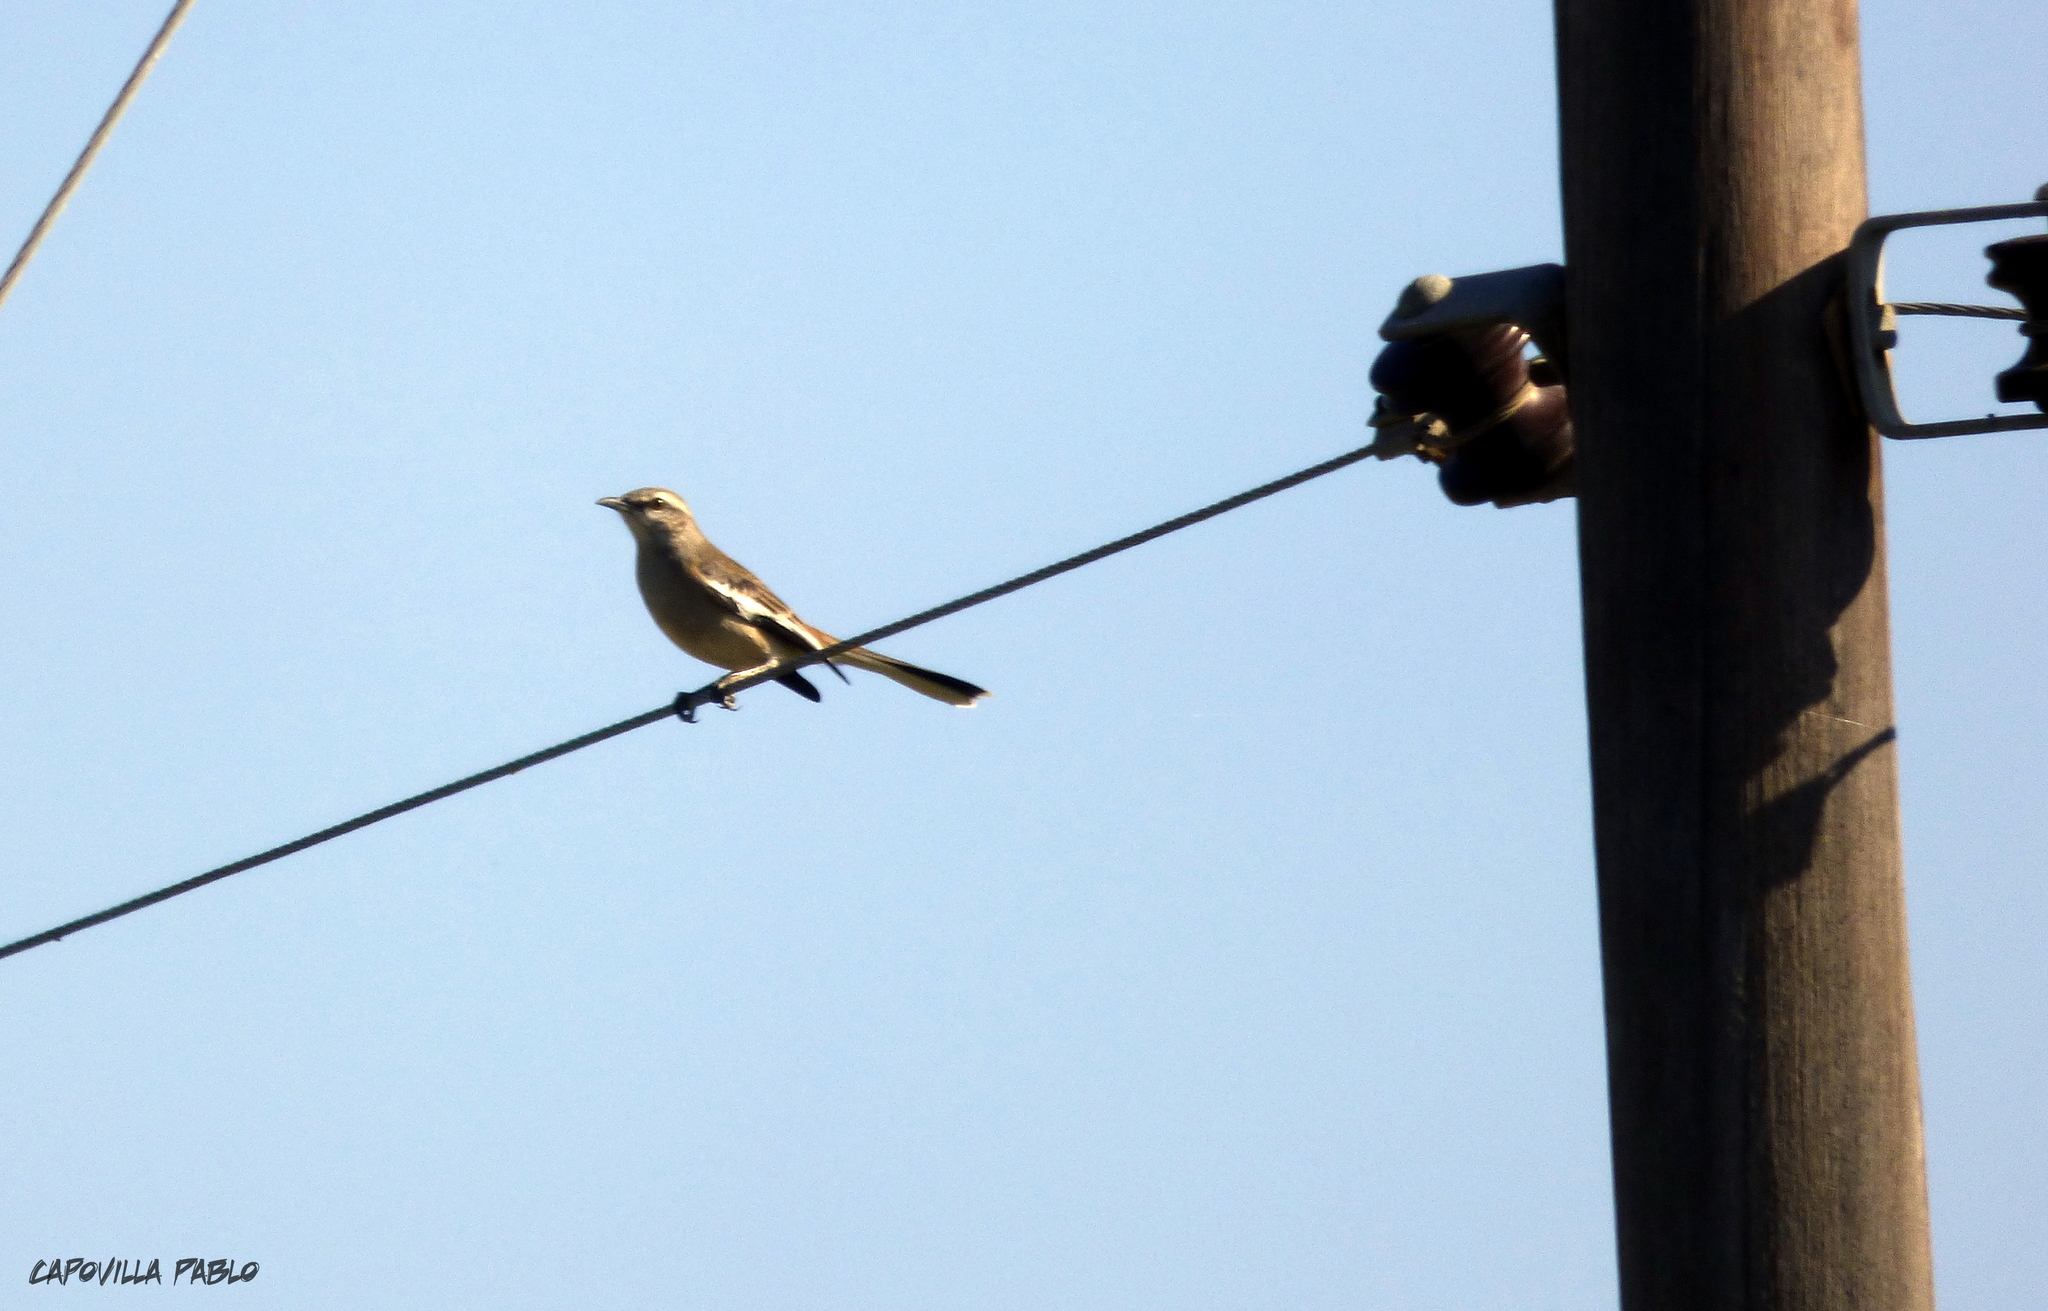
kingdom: Animalia
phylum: Chordata
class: Aves
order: Passeriformes
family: Mimidae
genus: Mimus
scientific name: Mimus triurus
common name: White-banded mockingbird
